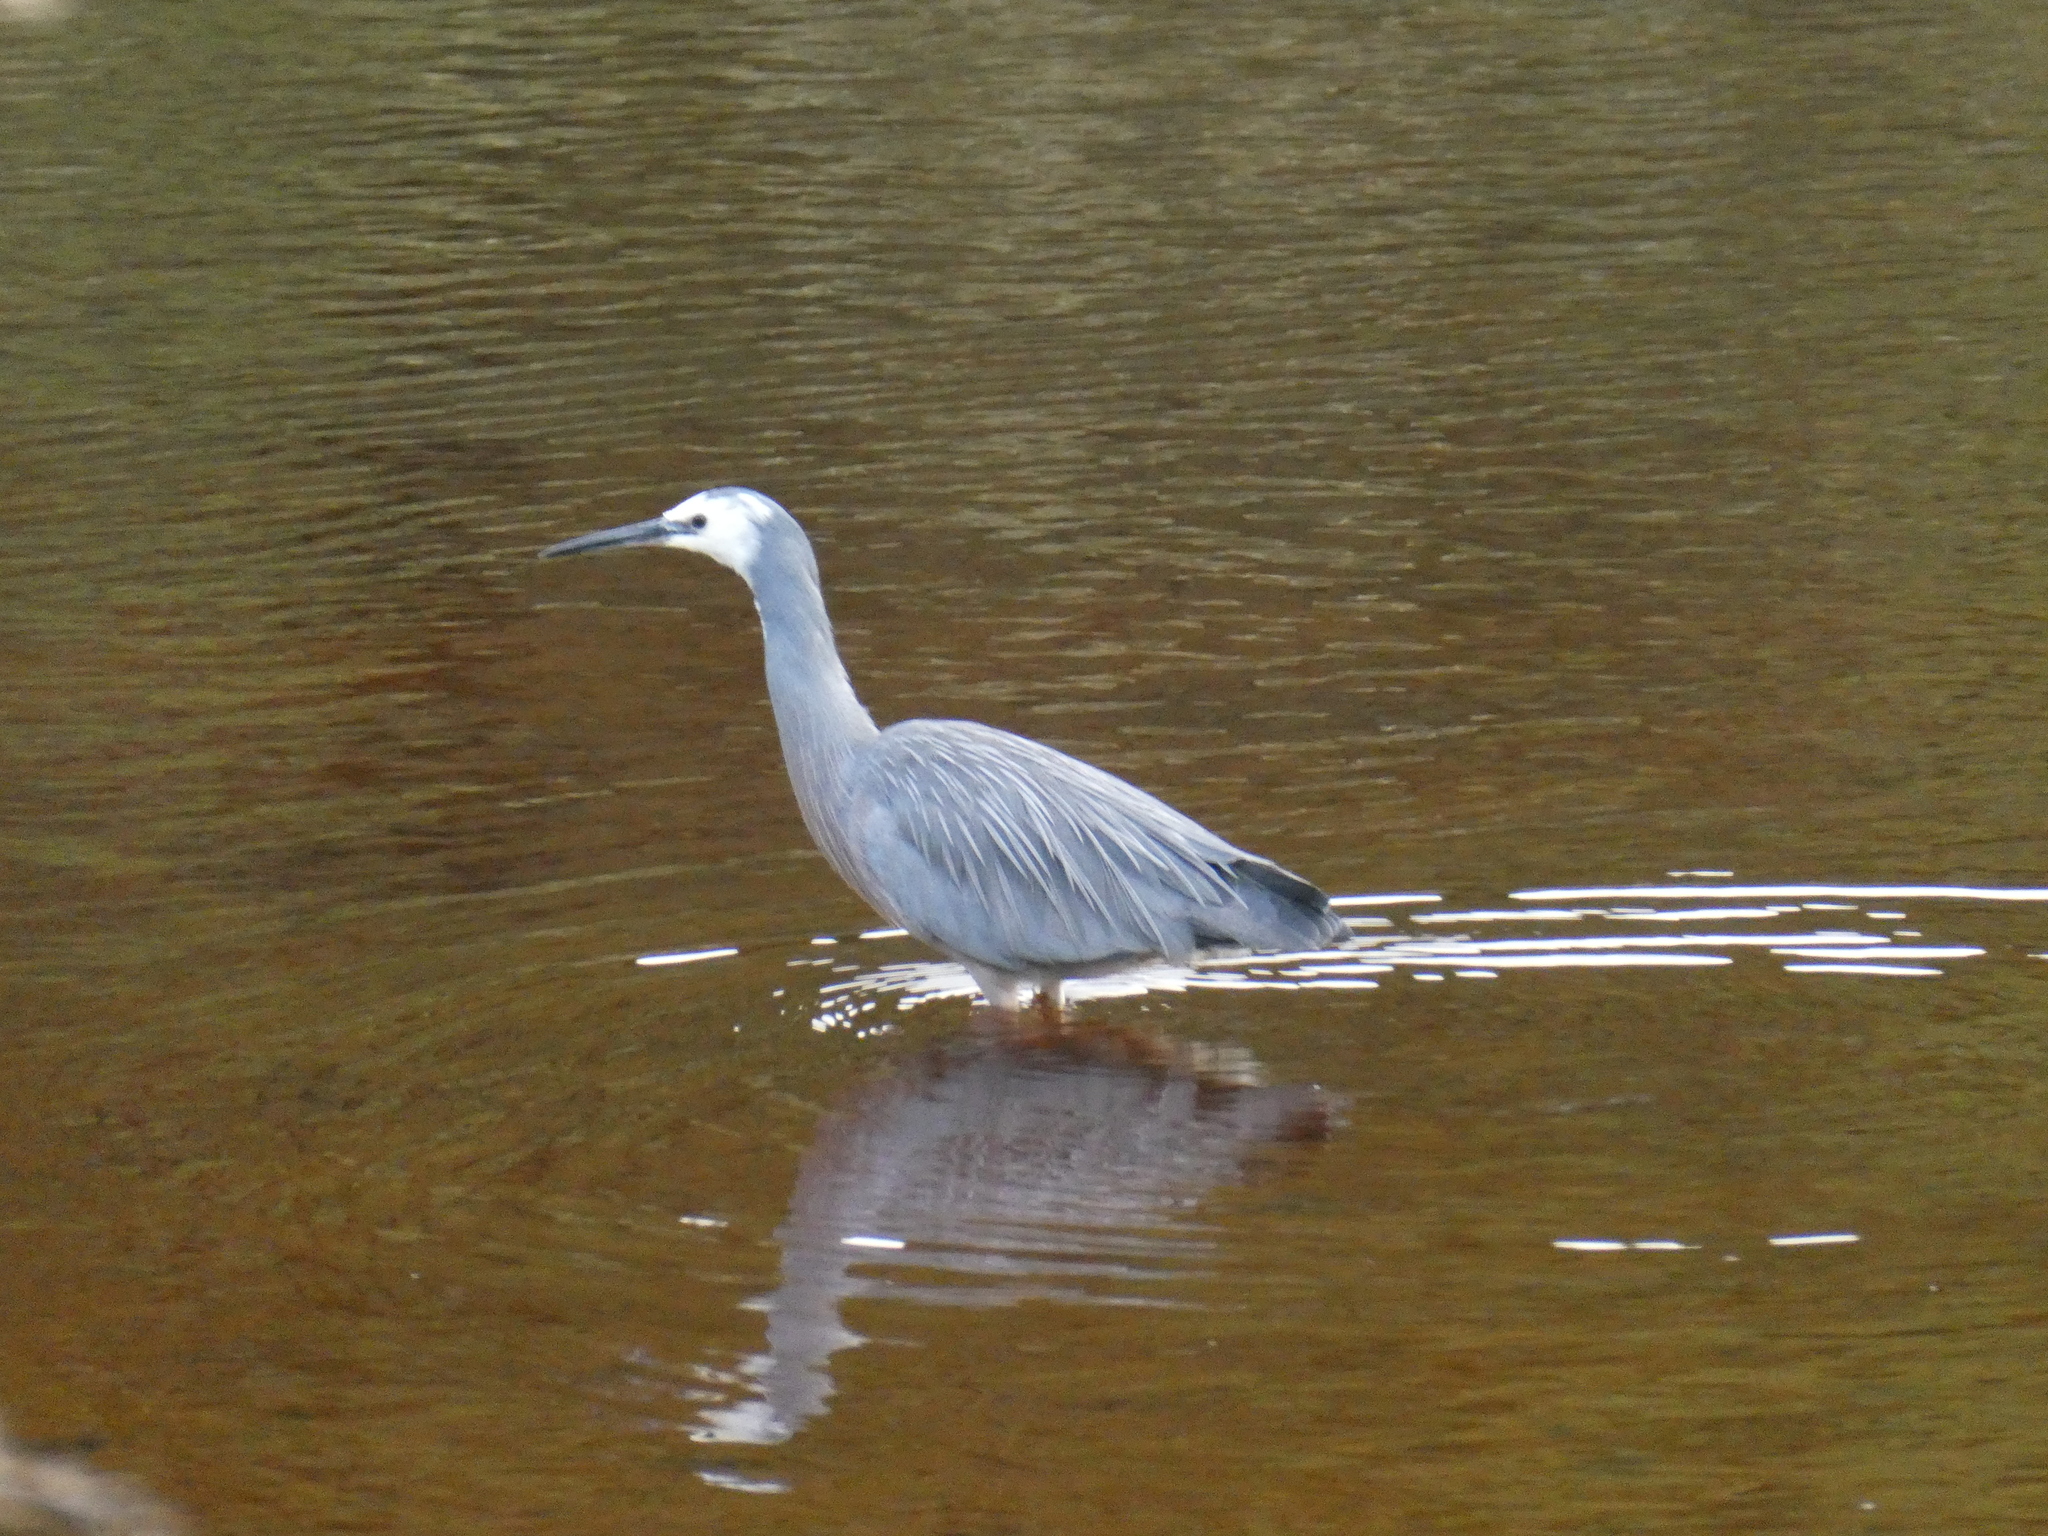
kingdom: Animalia
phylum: Chordata
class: Aves
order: Pelecaniformes
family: Ardeidae
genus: Egretta
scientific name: Egretta novaehollandiae
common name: White-faced heron
